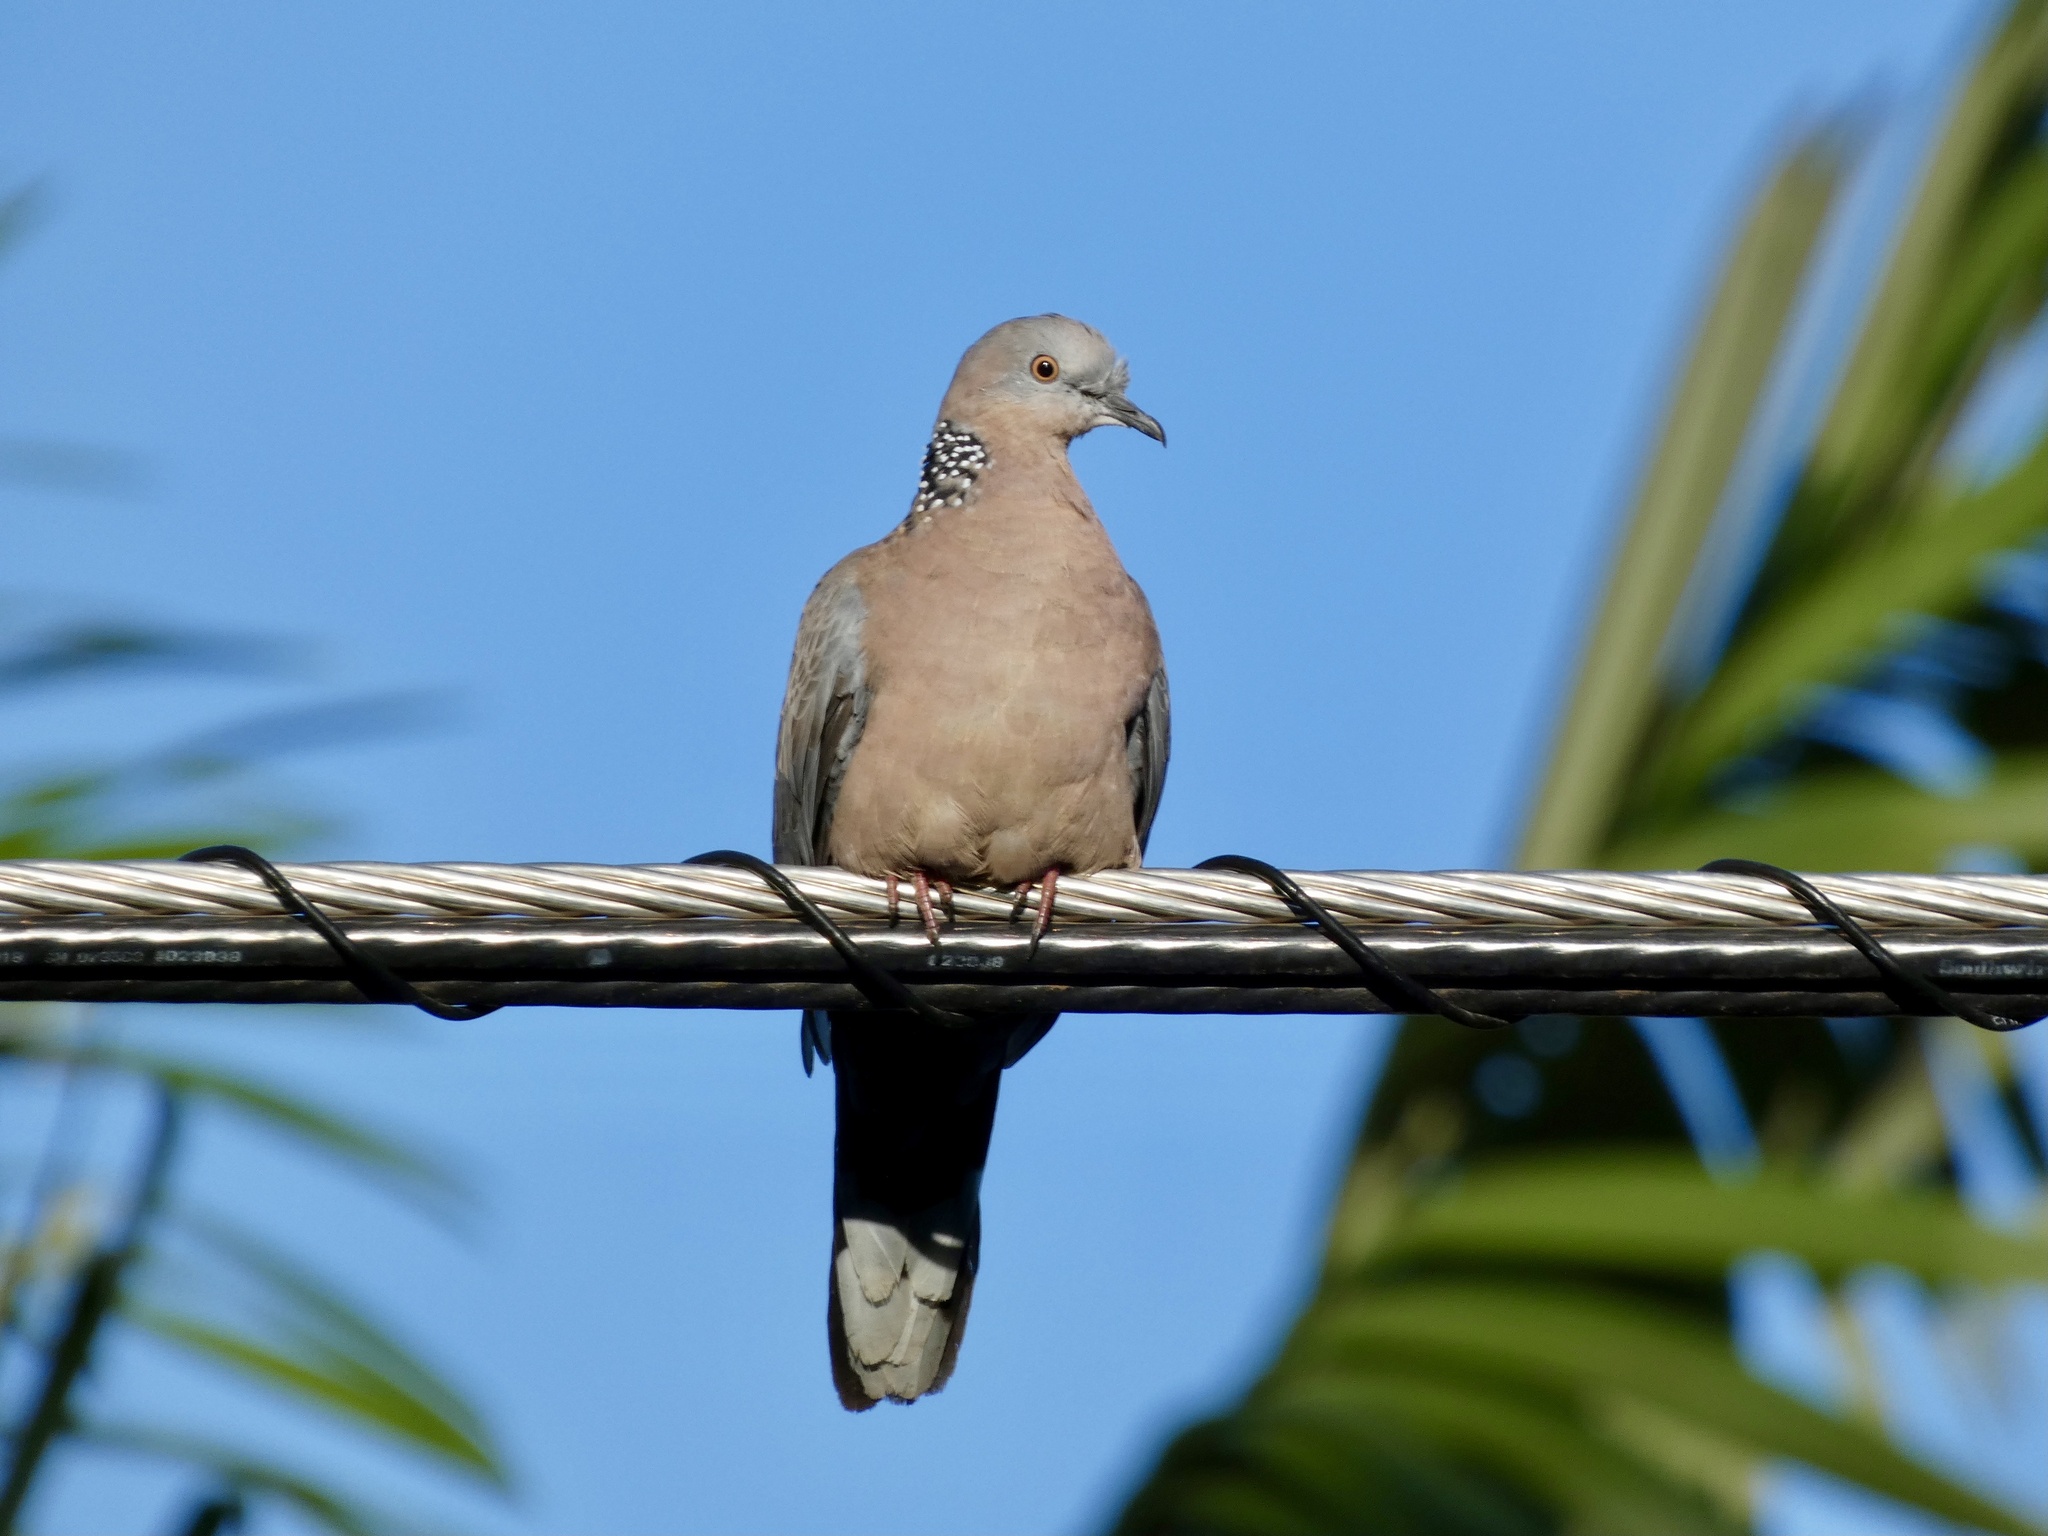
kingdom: Animalia
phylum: Chordata
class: Aves
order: Columbiformes
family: Columbidae
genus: Spilopelia
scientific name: Spilopelia chinensis
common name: Spotted dove
